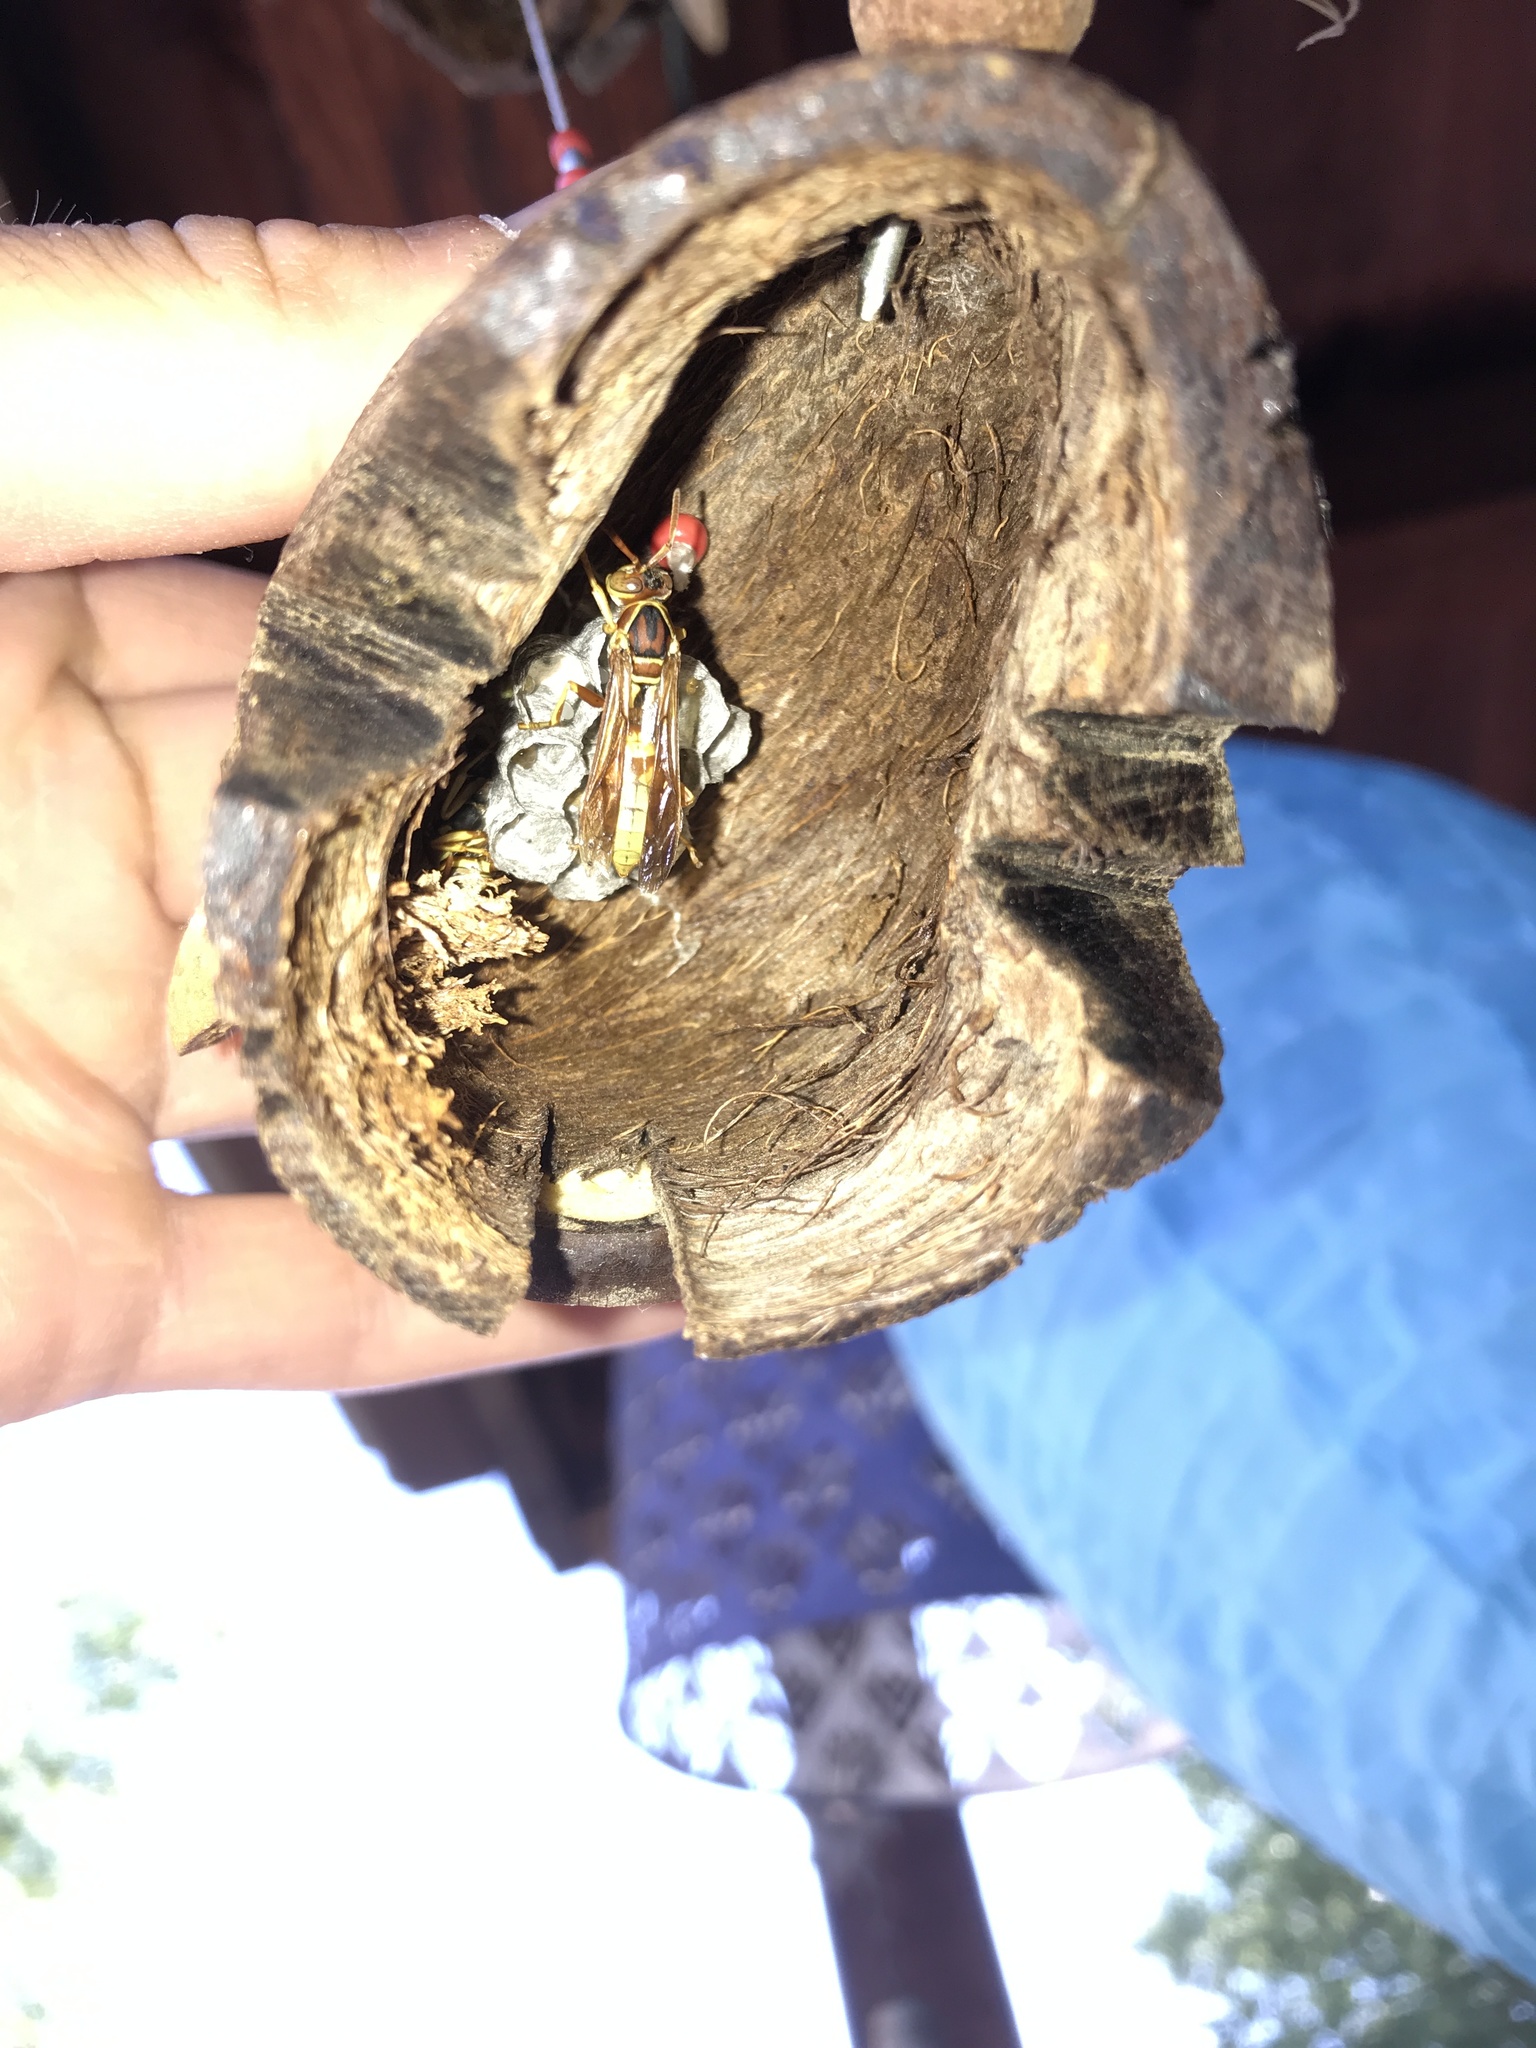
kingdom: Animalia
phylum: Arthropoda
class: Insecta
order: Hymenoptera
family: Eumenidae
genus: Polistes
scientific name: Polistes aurifer
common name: Paper wasp
